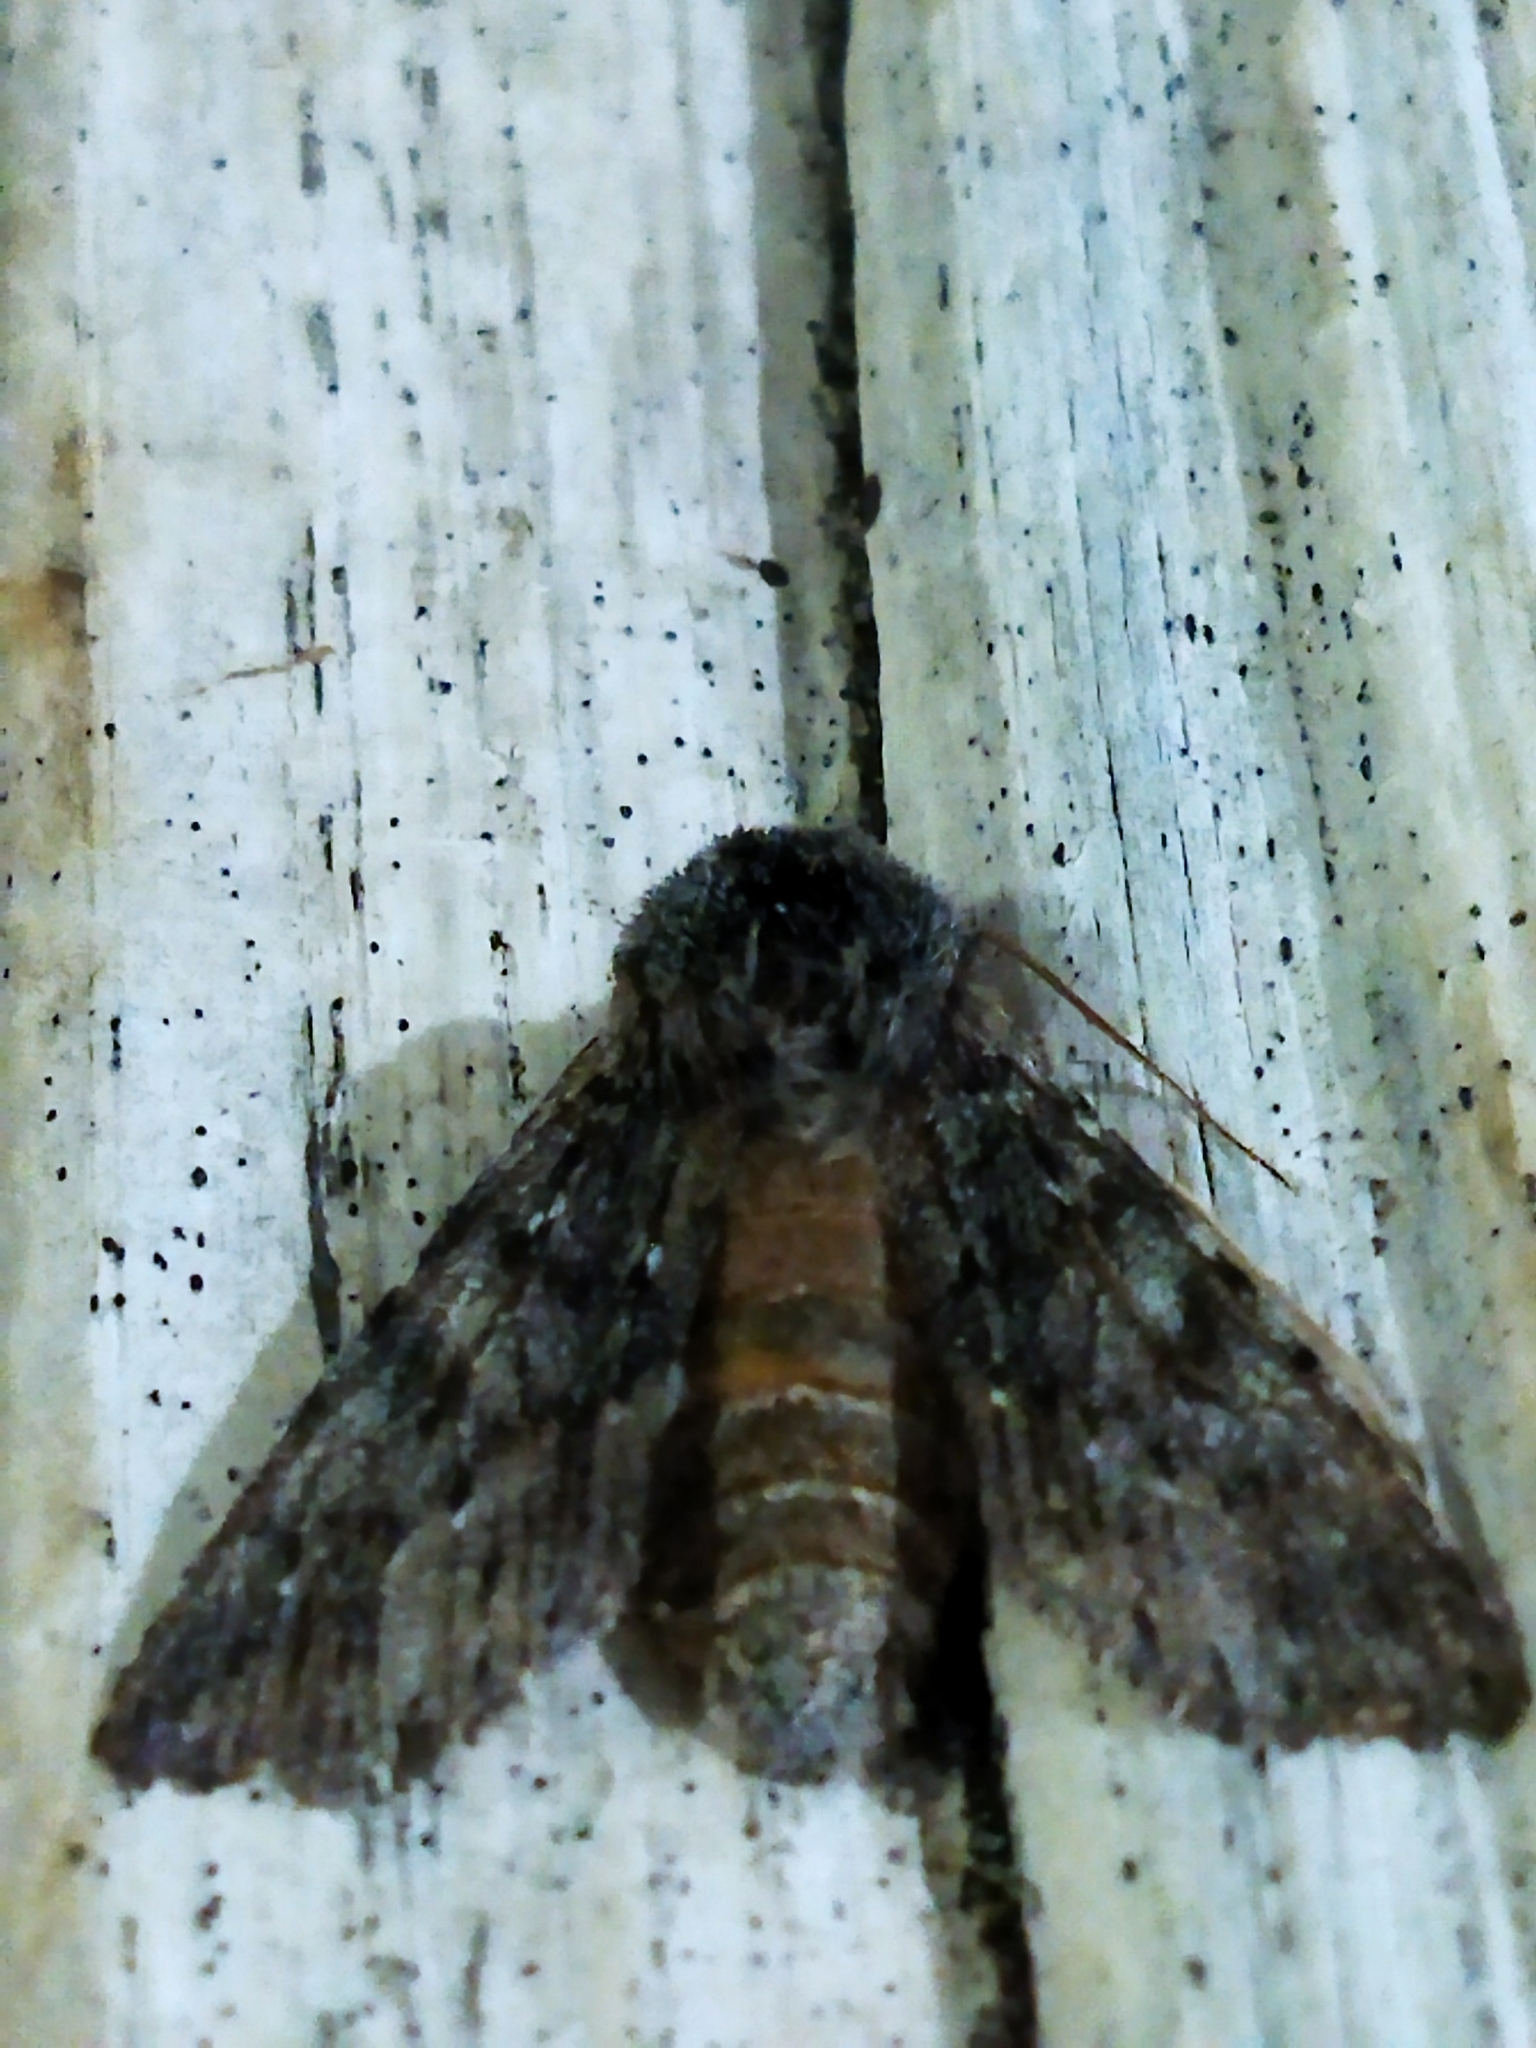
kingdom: Animalia
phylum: Arthropoda
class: Insecta
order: Lepidoptera
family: Notodontidae
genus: Dicranura
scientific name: Dicranura ulmi
